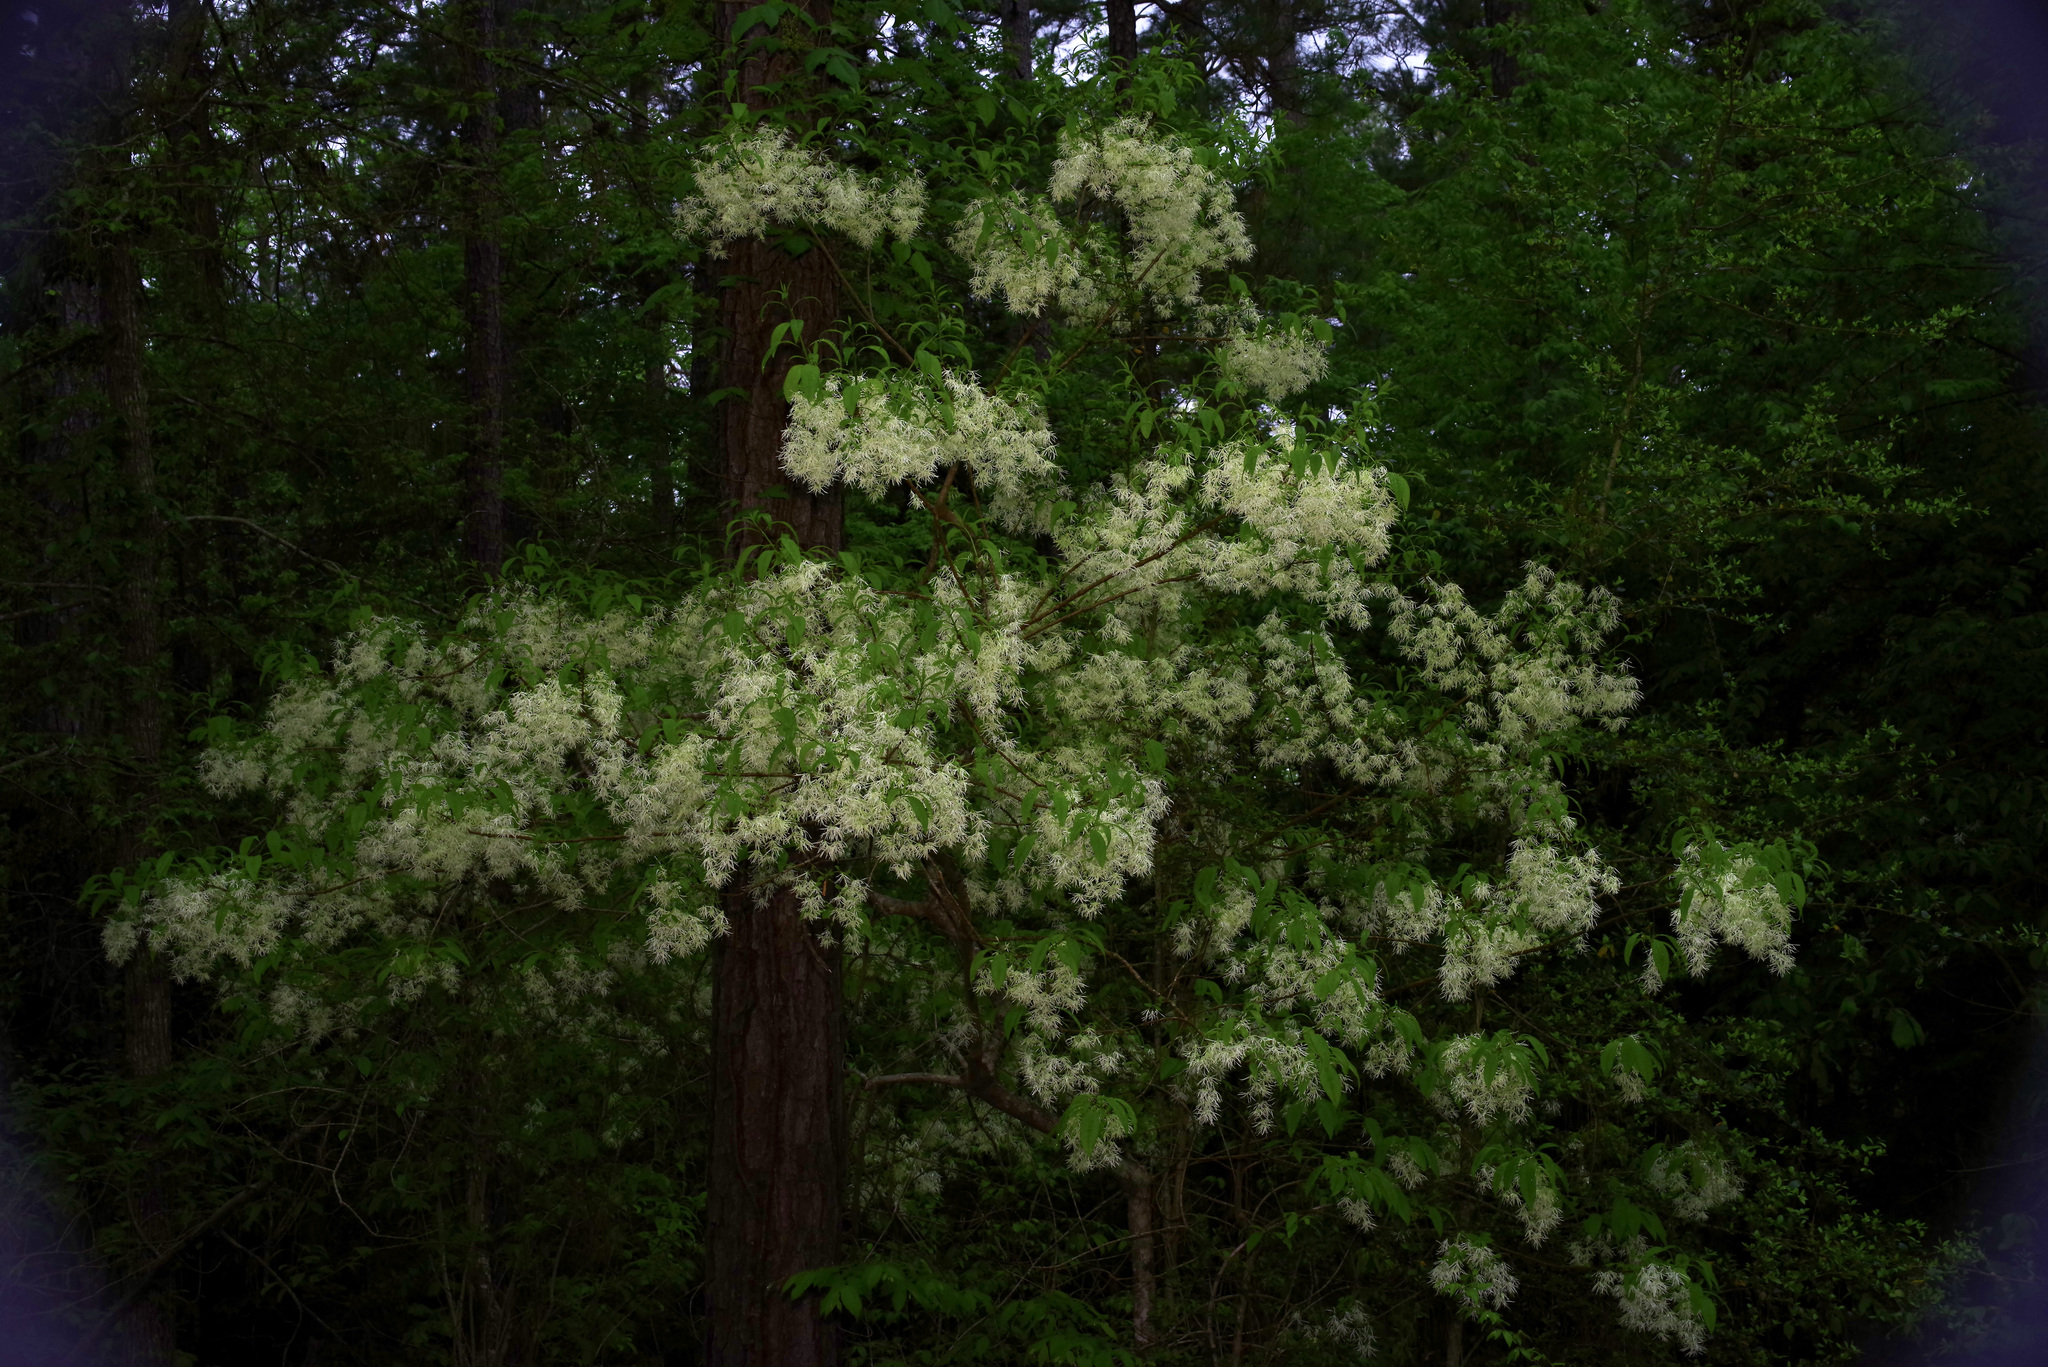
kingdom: Plantae
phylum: Tracheophyta
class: Magnoliopsida
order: Lamiales
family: Oleaceae
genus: Chionanthus
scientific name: Chionanthus virginicus
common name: American fringetree
